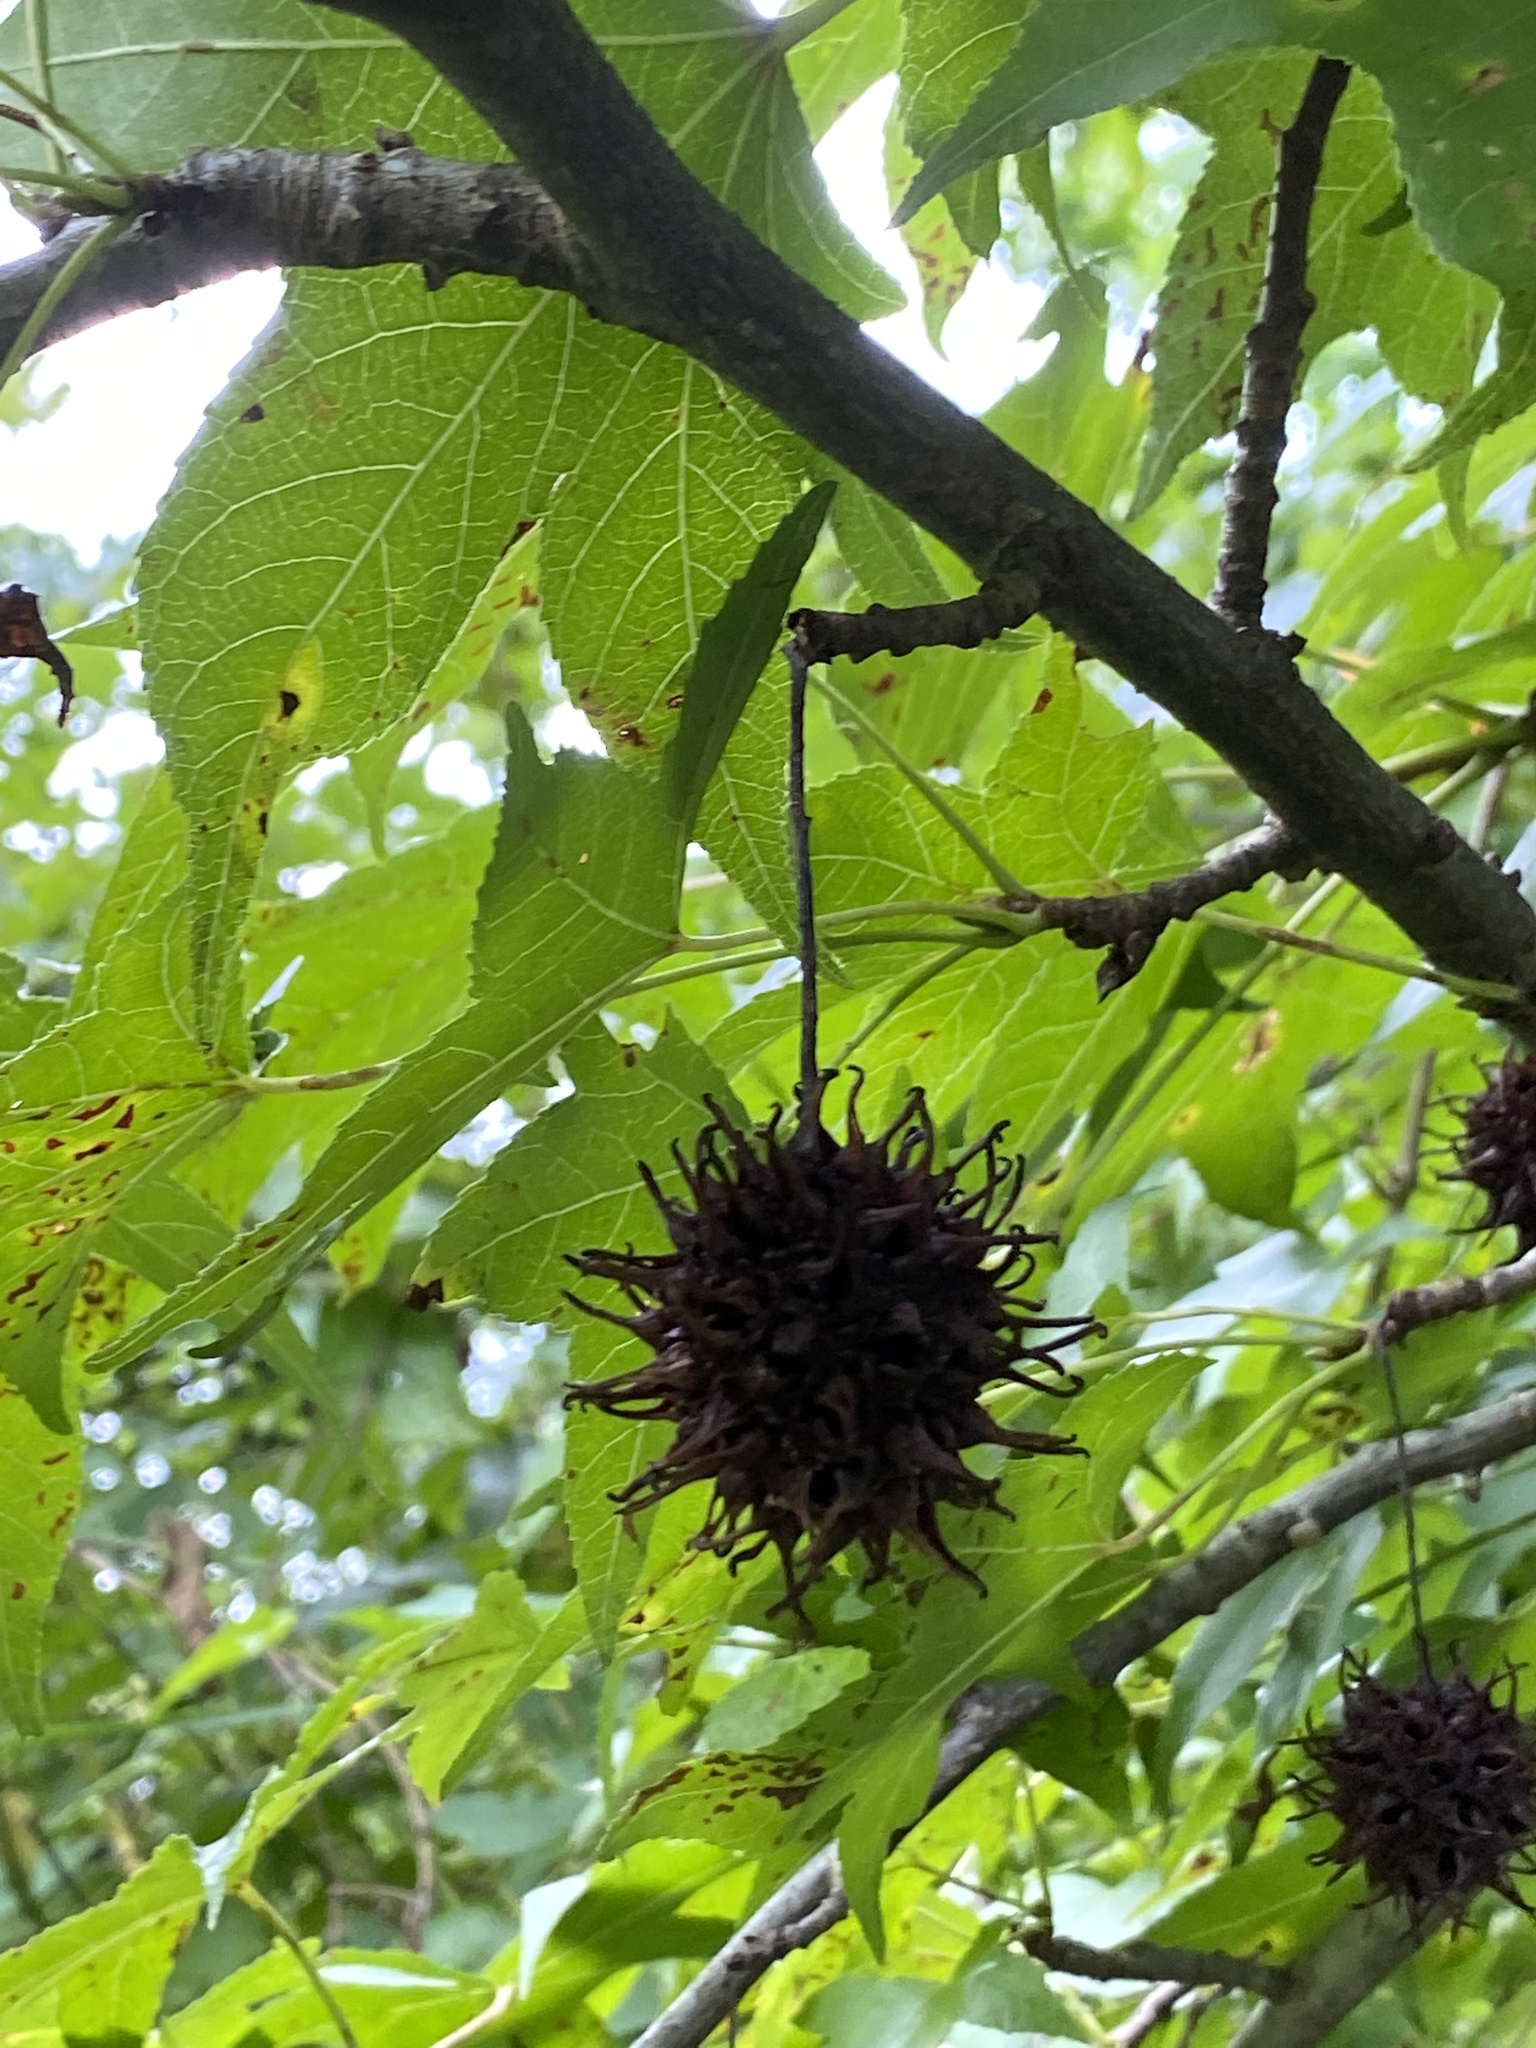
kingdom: Plantae
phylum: Tracheophyta
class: Magnoliopsida
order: Saxifragales
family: Altingiaceae
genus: Liquidambar
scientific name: Liquidambar styraciflua
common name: Sweet gum
